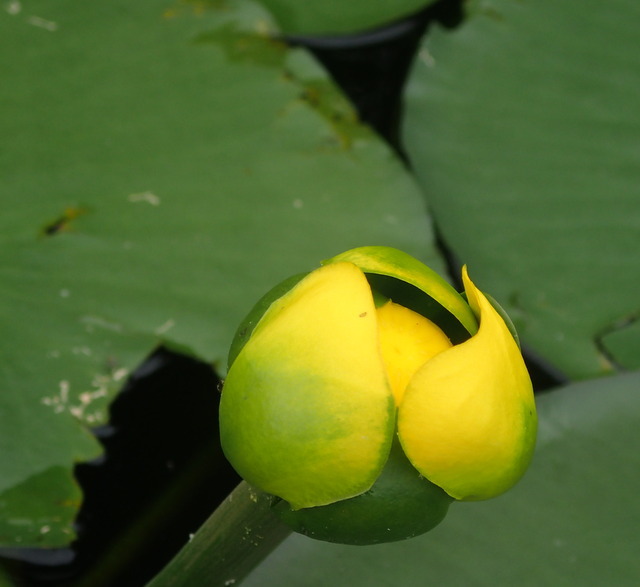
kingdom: Plantae
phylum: Tracheophyta
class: Magnoliopsida
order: Nymphaeales
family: Nymphaeaceae
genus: Nuphar
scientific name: Nuphar advena
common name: Spatter-dock
